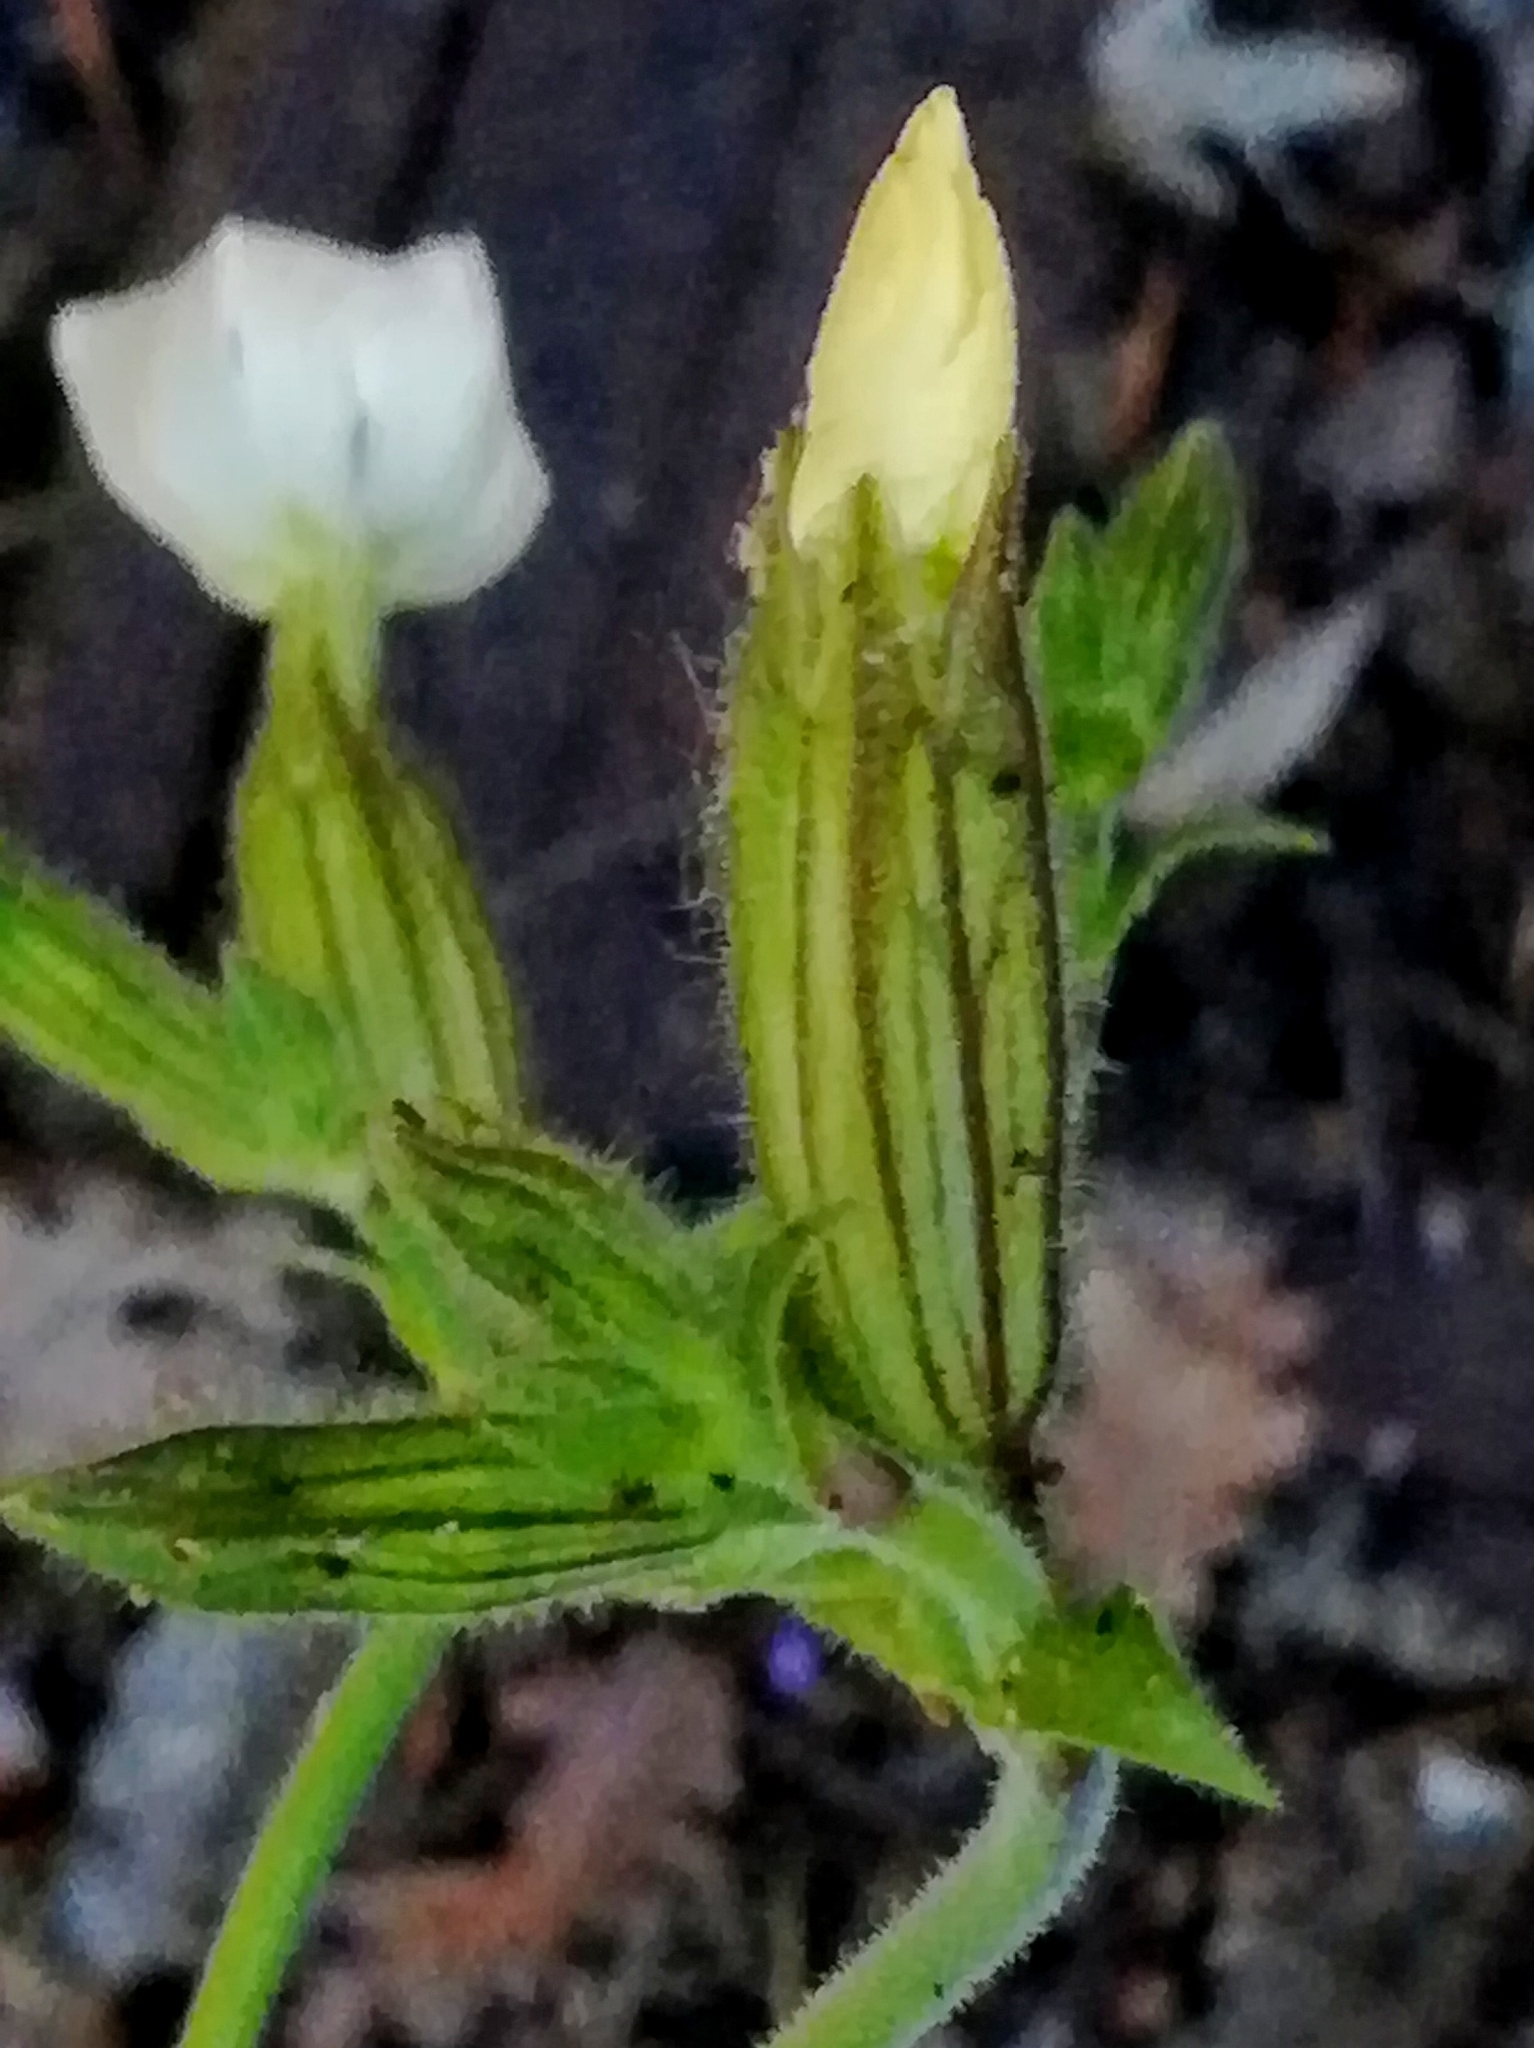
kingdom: Plantae
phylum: Tracheophyta
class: Magnoliopsida
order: Caryophyllales
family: Caryophyllaceae
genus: Silene
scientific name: Silene latifolia
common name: White campion
